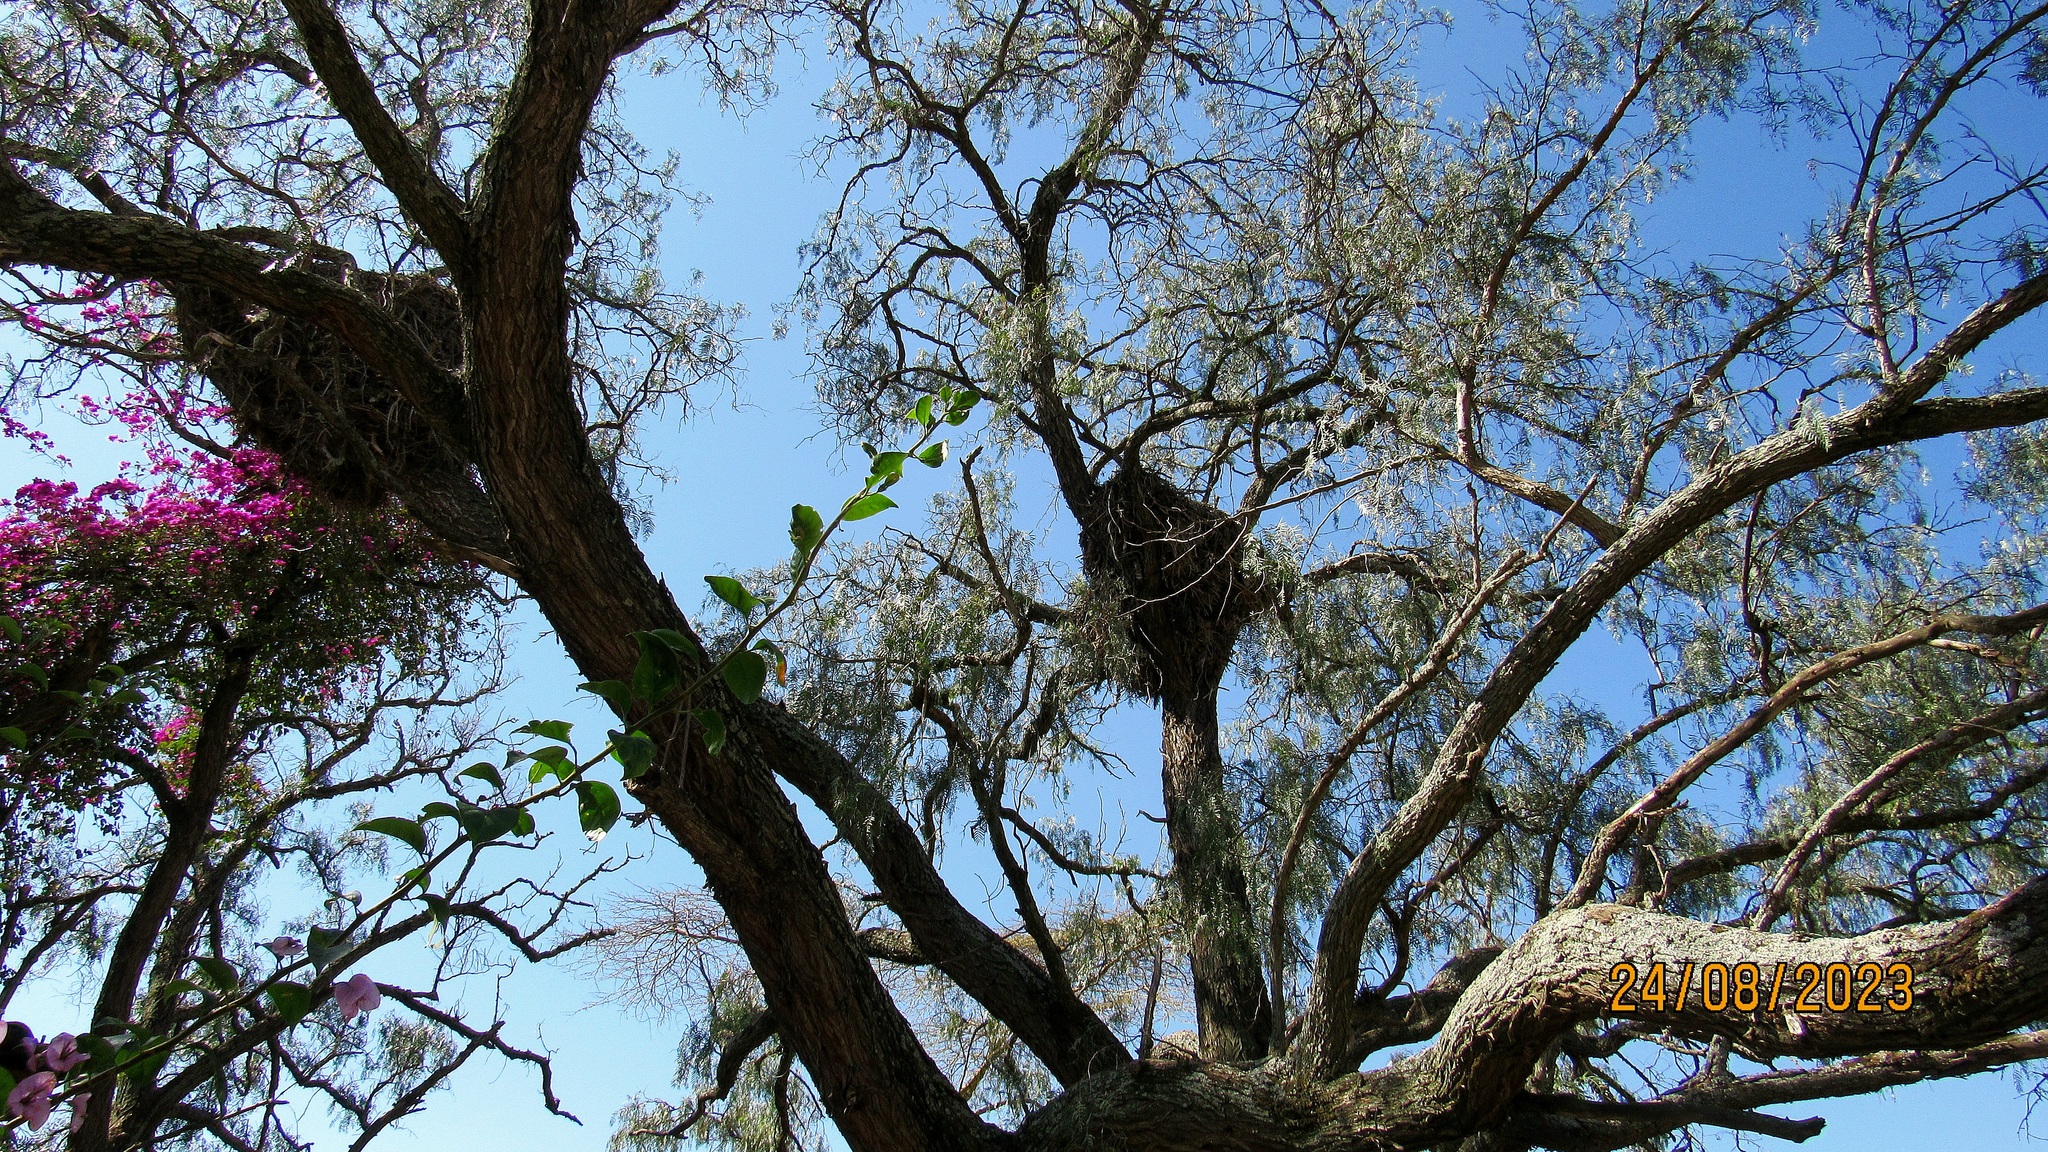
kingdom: Animalia
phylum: Chordata
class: Aves
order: Pelecaniformes
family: Scopidae
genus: Scopus
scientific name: Scopus umbretta
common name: Hamerkop
